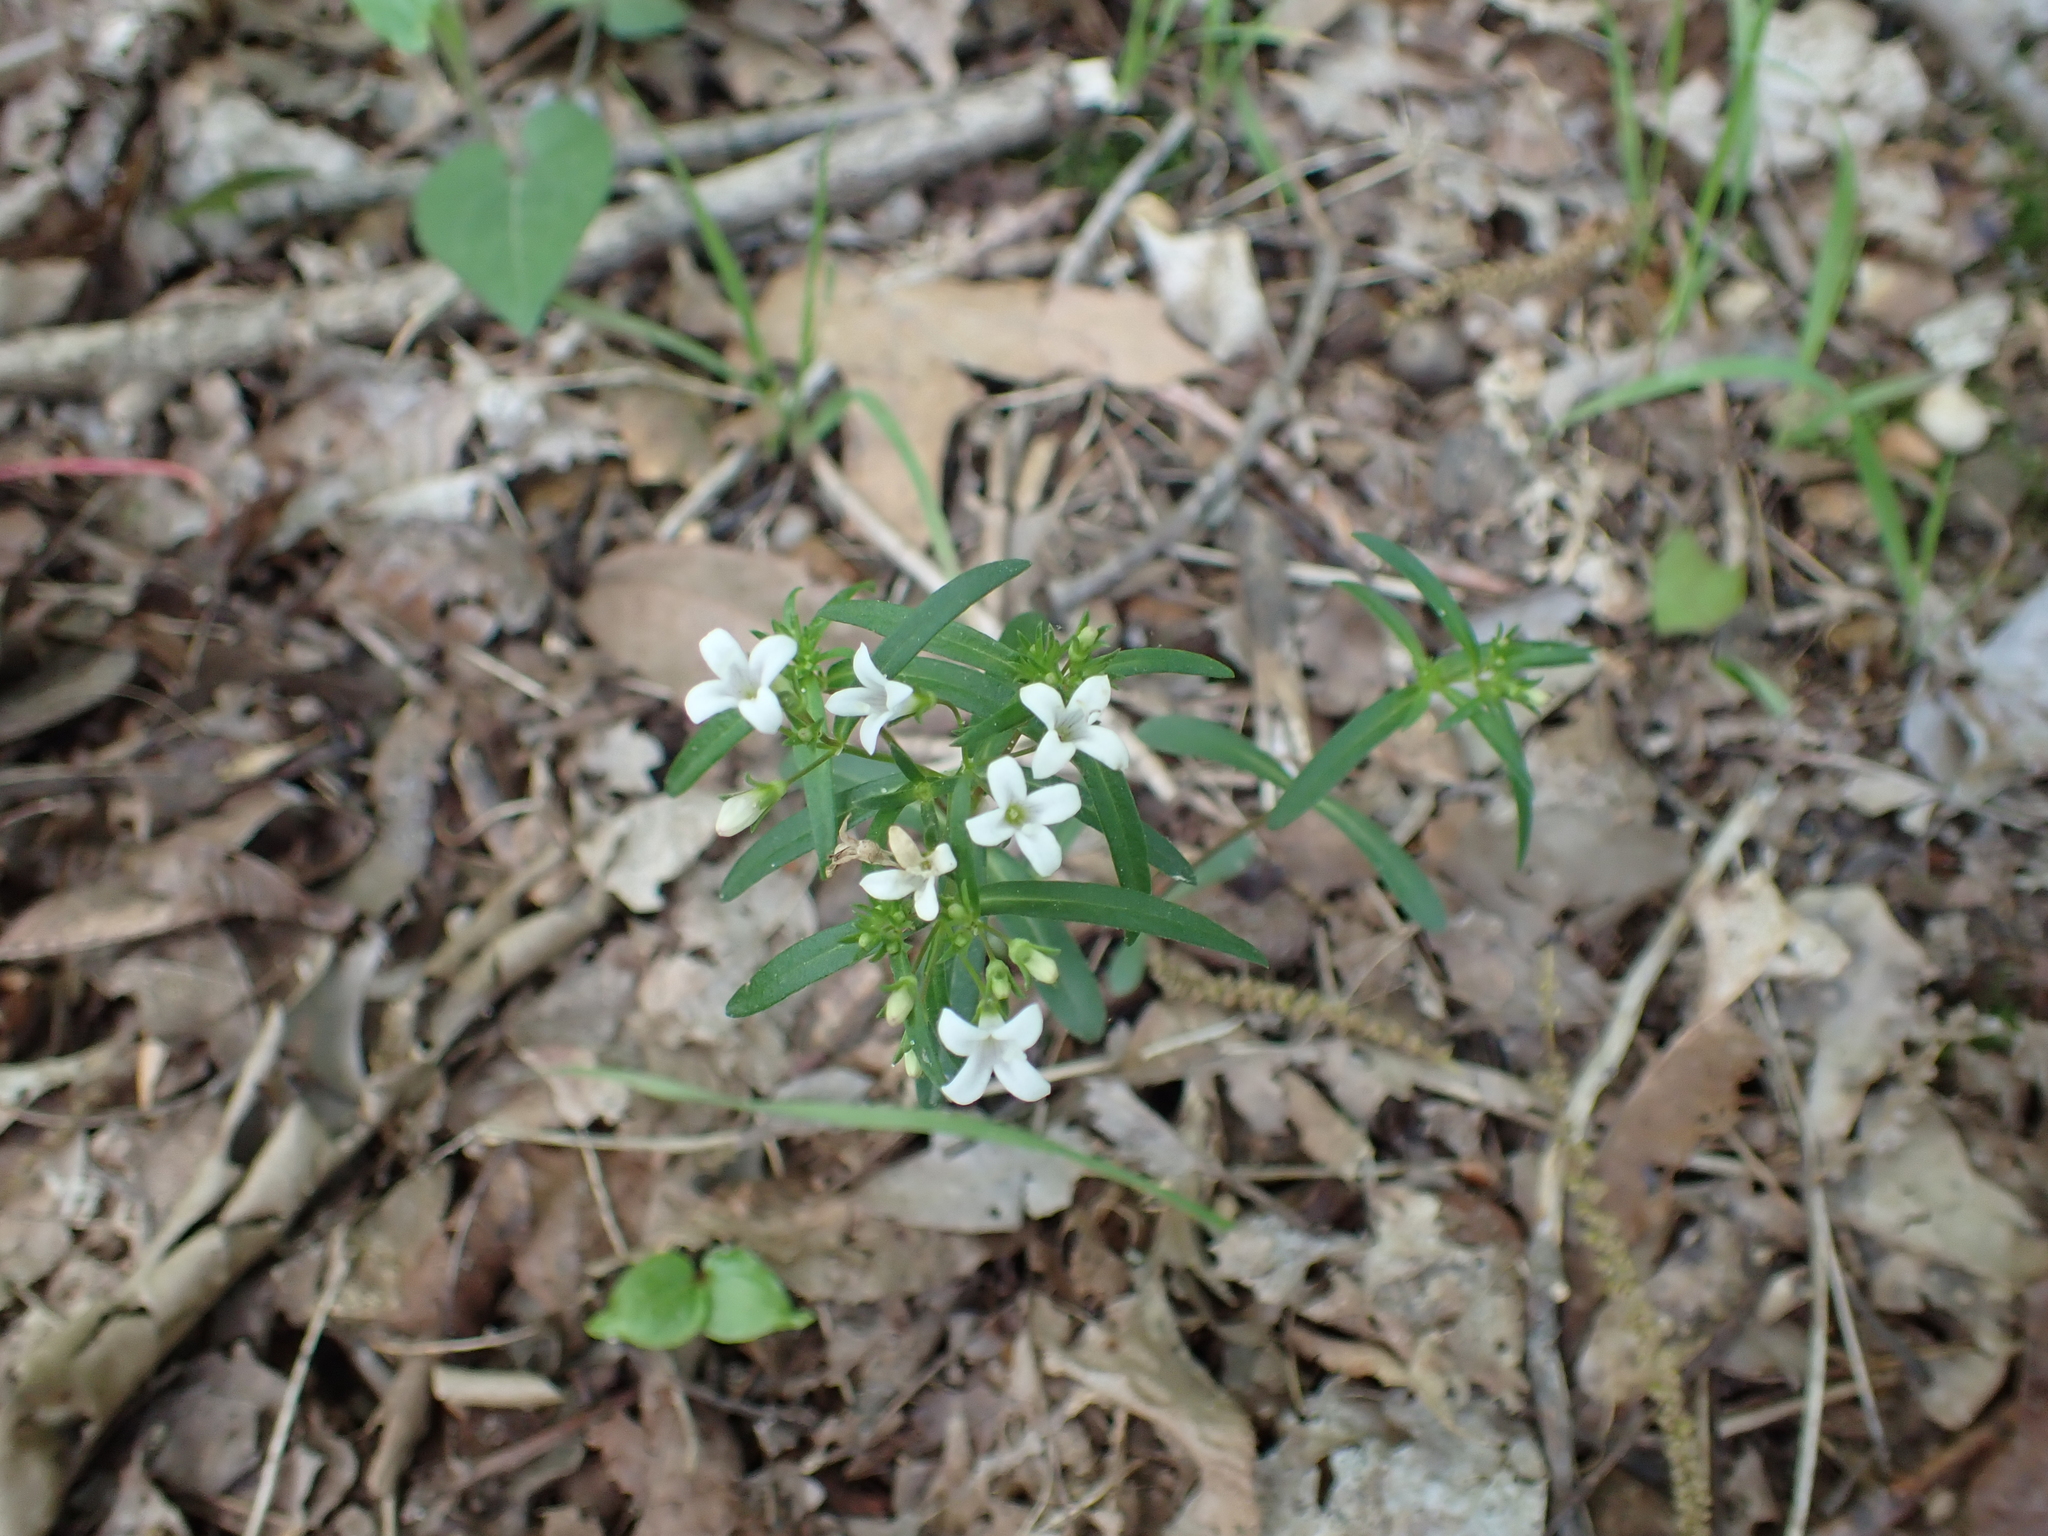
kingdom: Plantae
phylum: Tracheophyta
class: Magnoliopsida
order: Gentianales
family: Rubiaceae
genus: Houstonia
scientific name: Houstonia longifolia
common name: Long-leaved bluets
